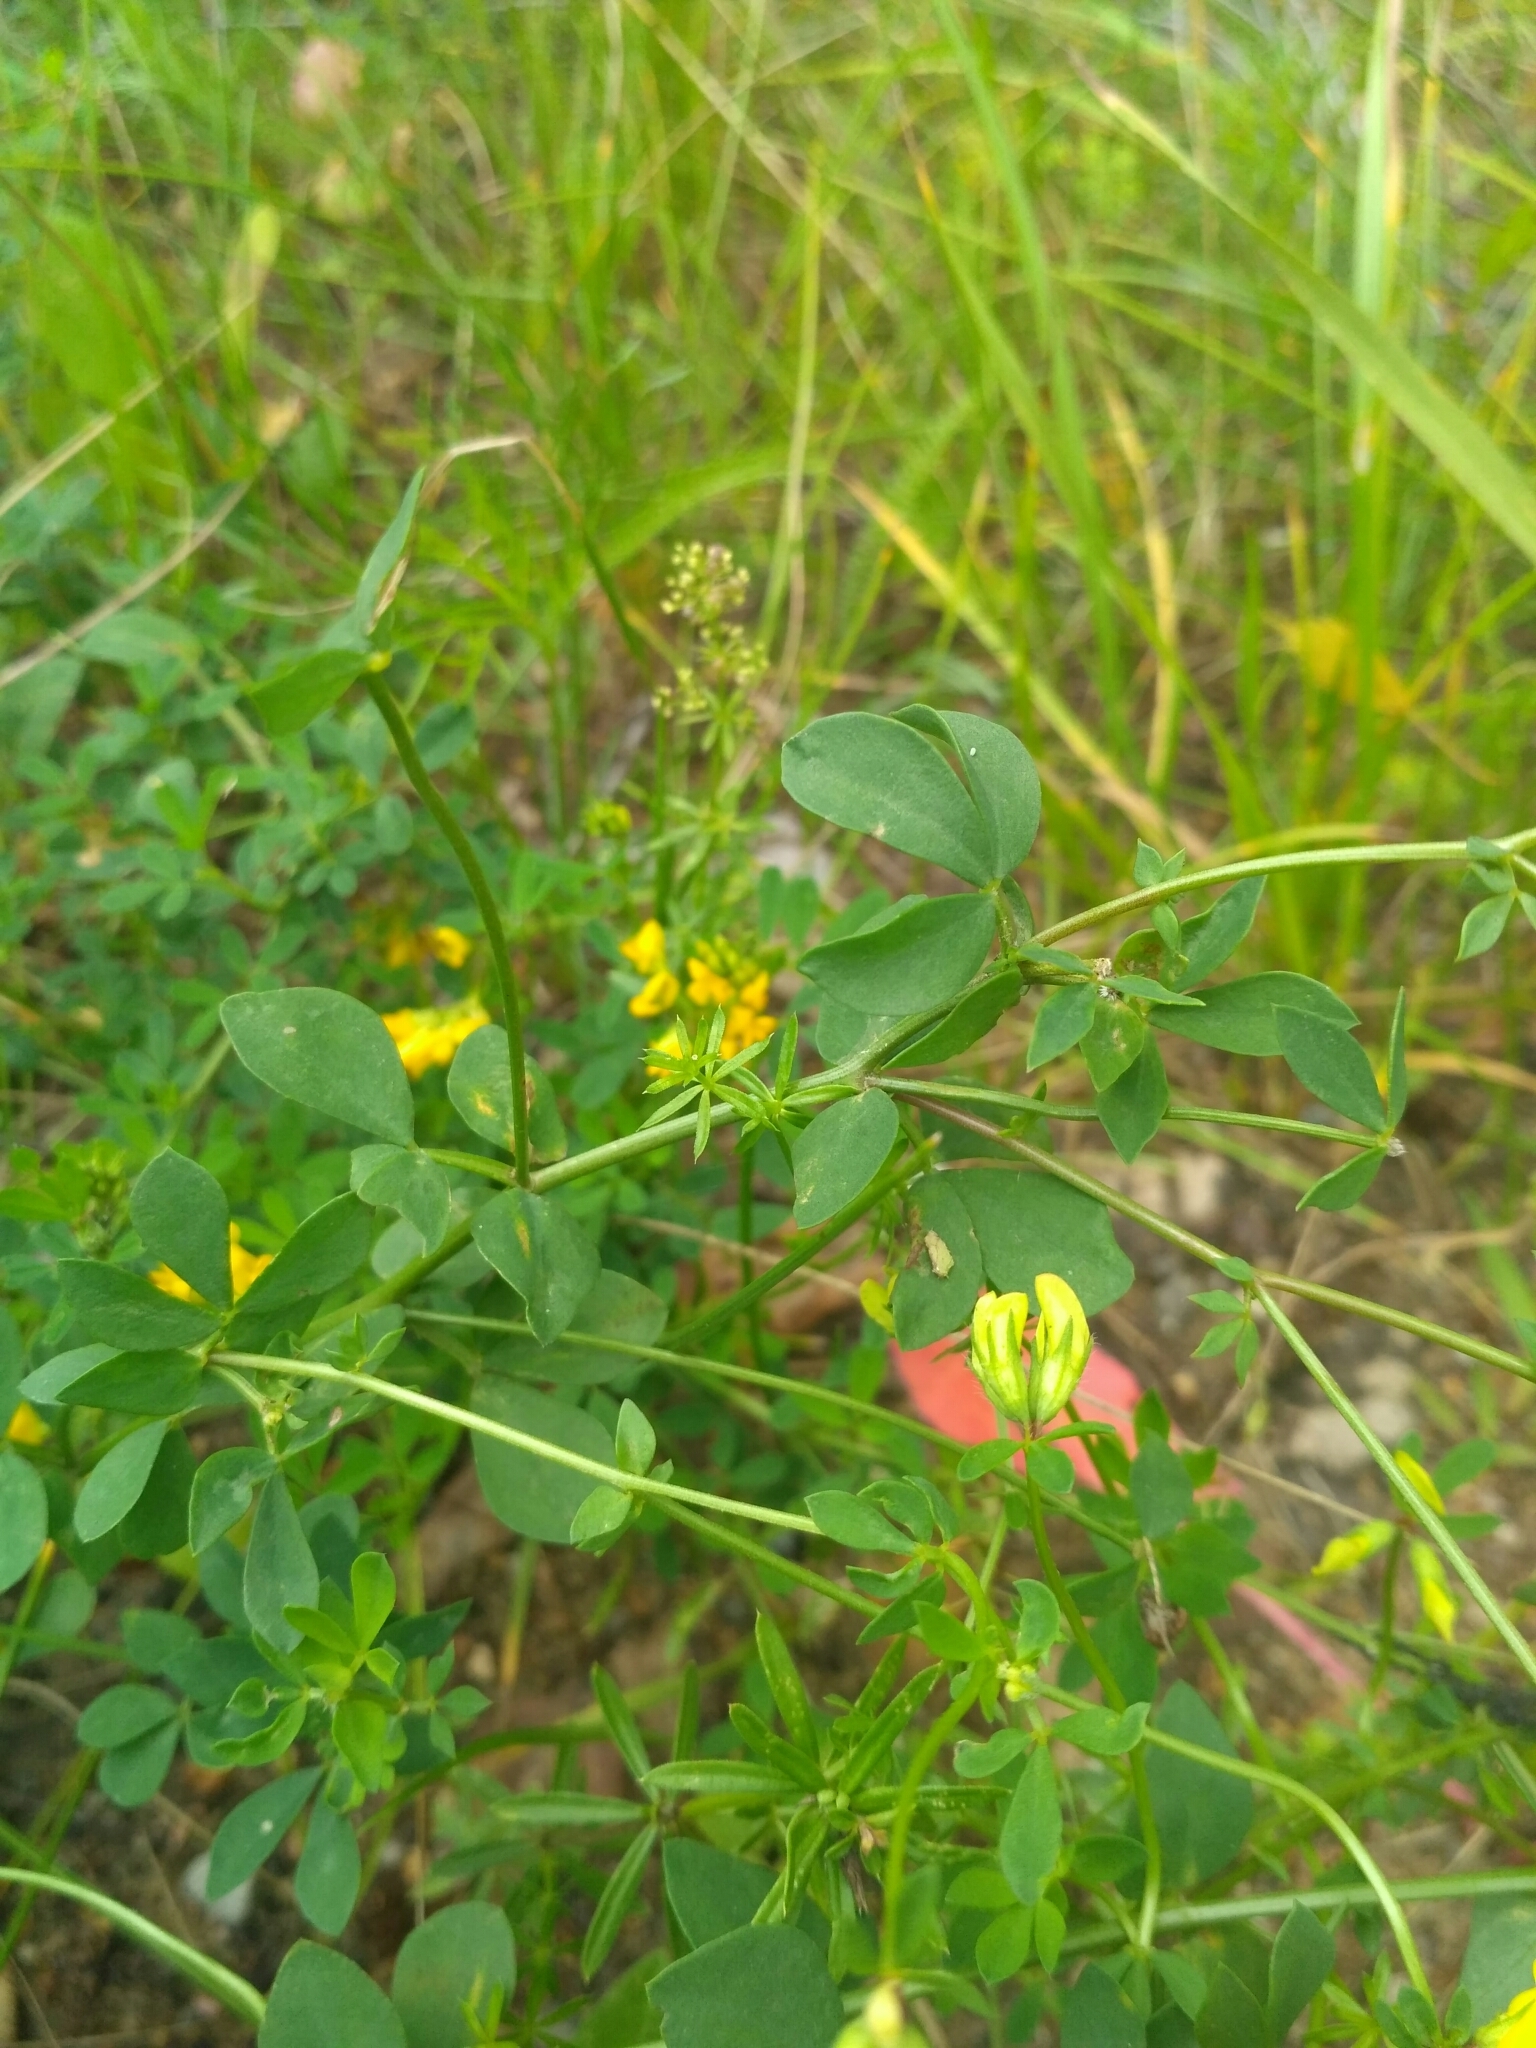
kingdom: Plantae
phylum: Tracheophyta
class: Magnoliopsida
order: Fabales
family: Fabaceae
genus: Lotus
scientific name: Lotus corniculatus
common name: Common bird's-foot-trefoil
